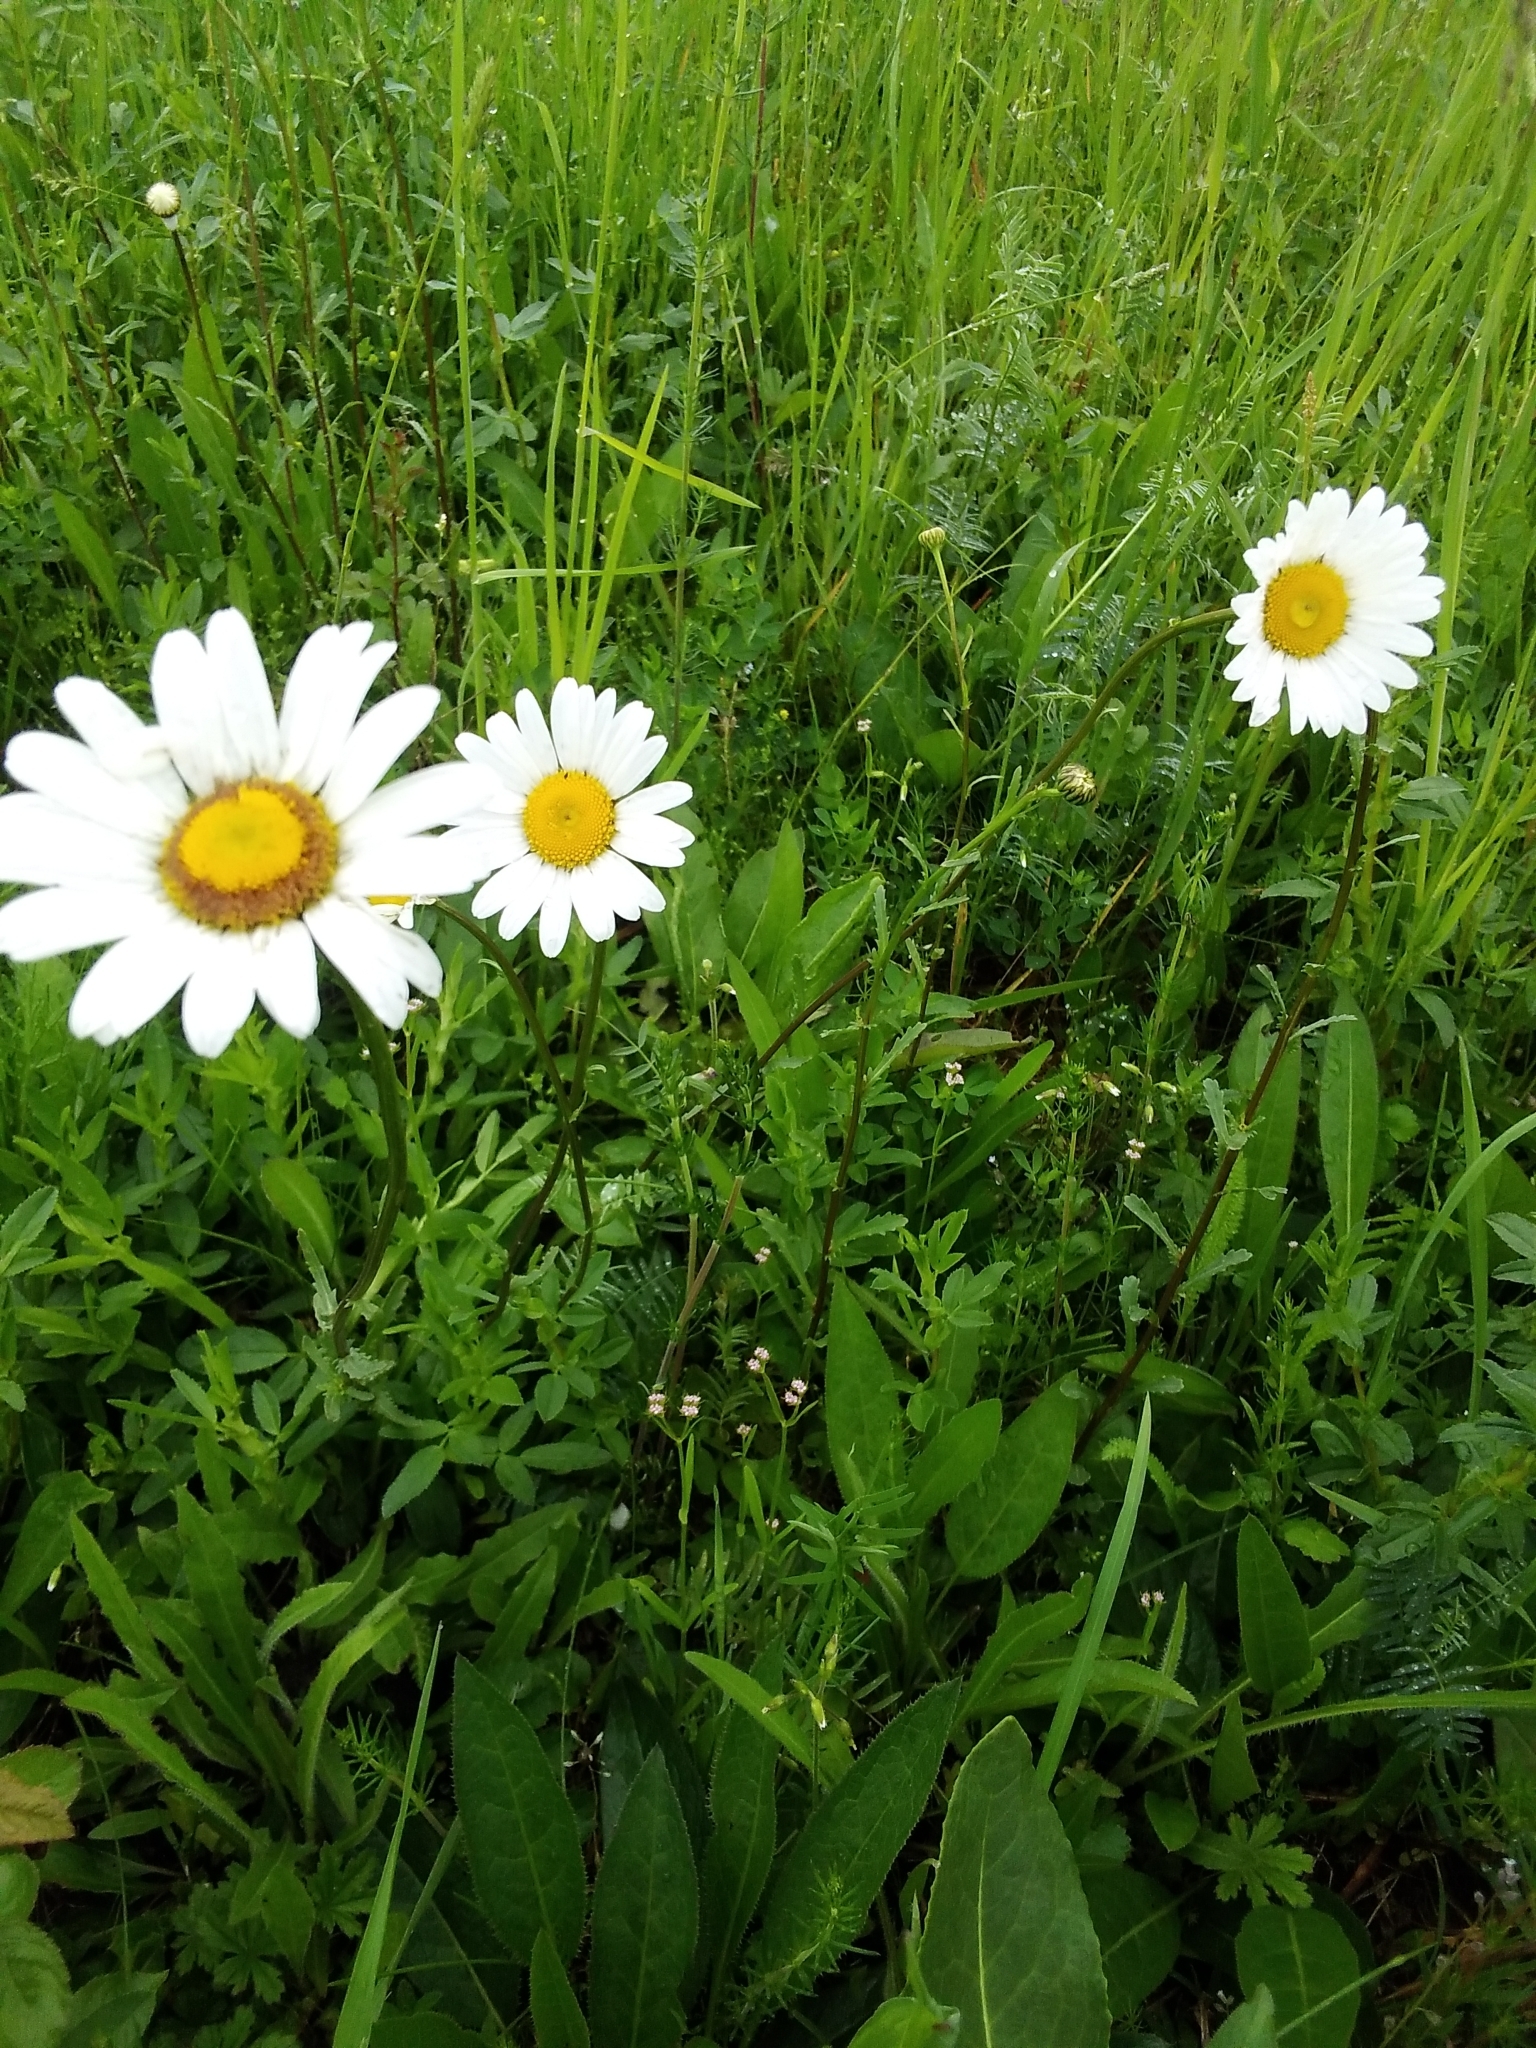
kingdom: Plantae
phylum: Tracheophyta
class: Magnoliopsida
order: Asterales
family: Asteraceae
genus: Leucanthemum
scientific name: Leucanthemum vulgare
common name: Oxeye daisy
